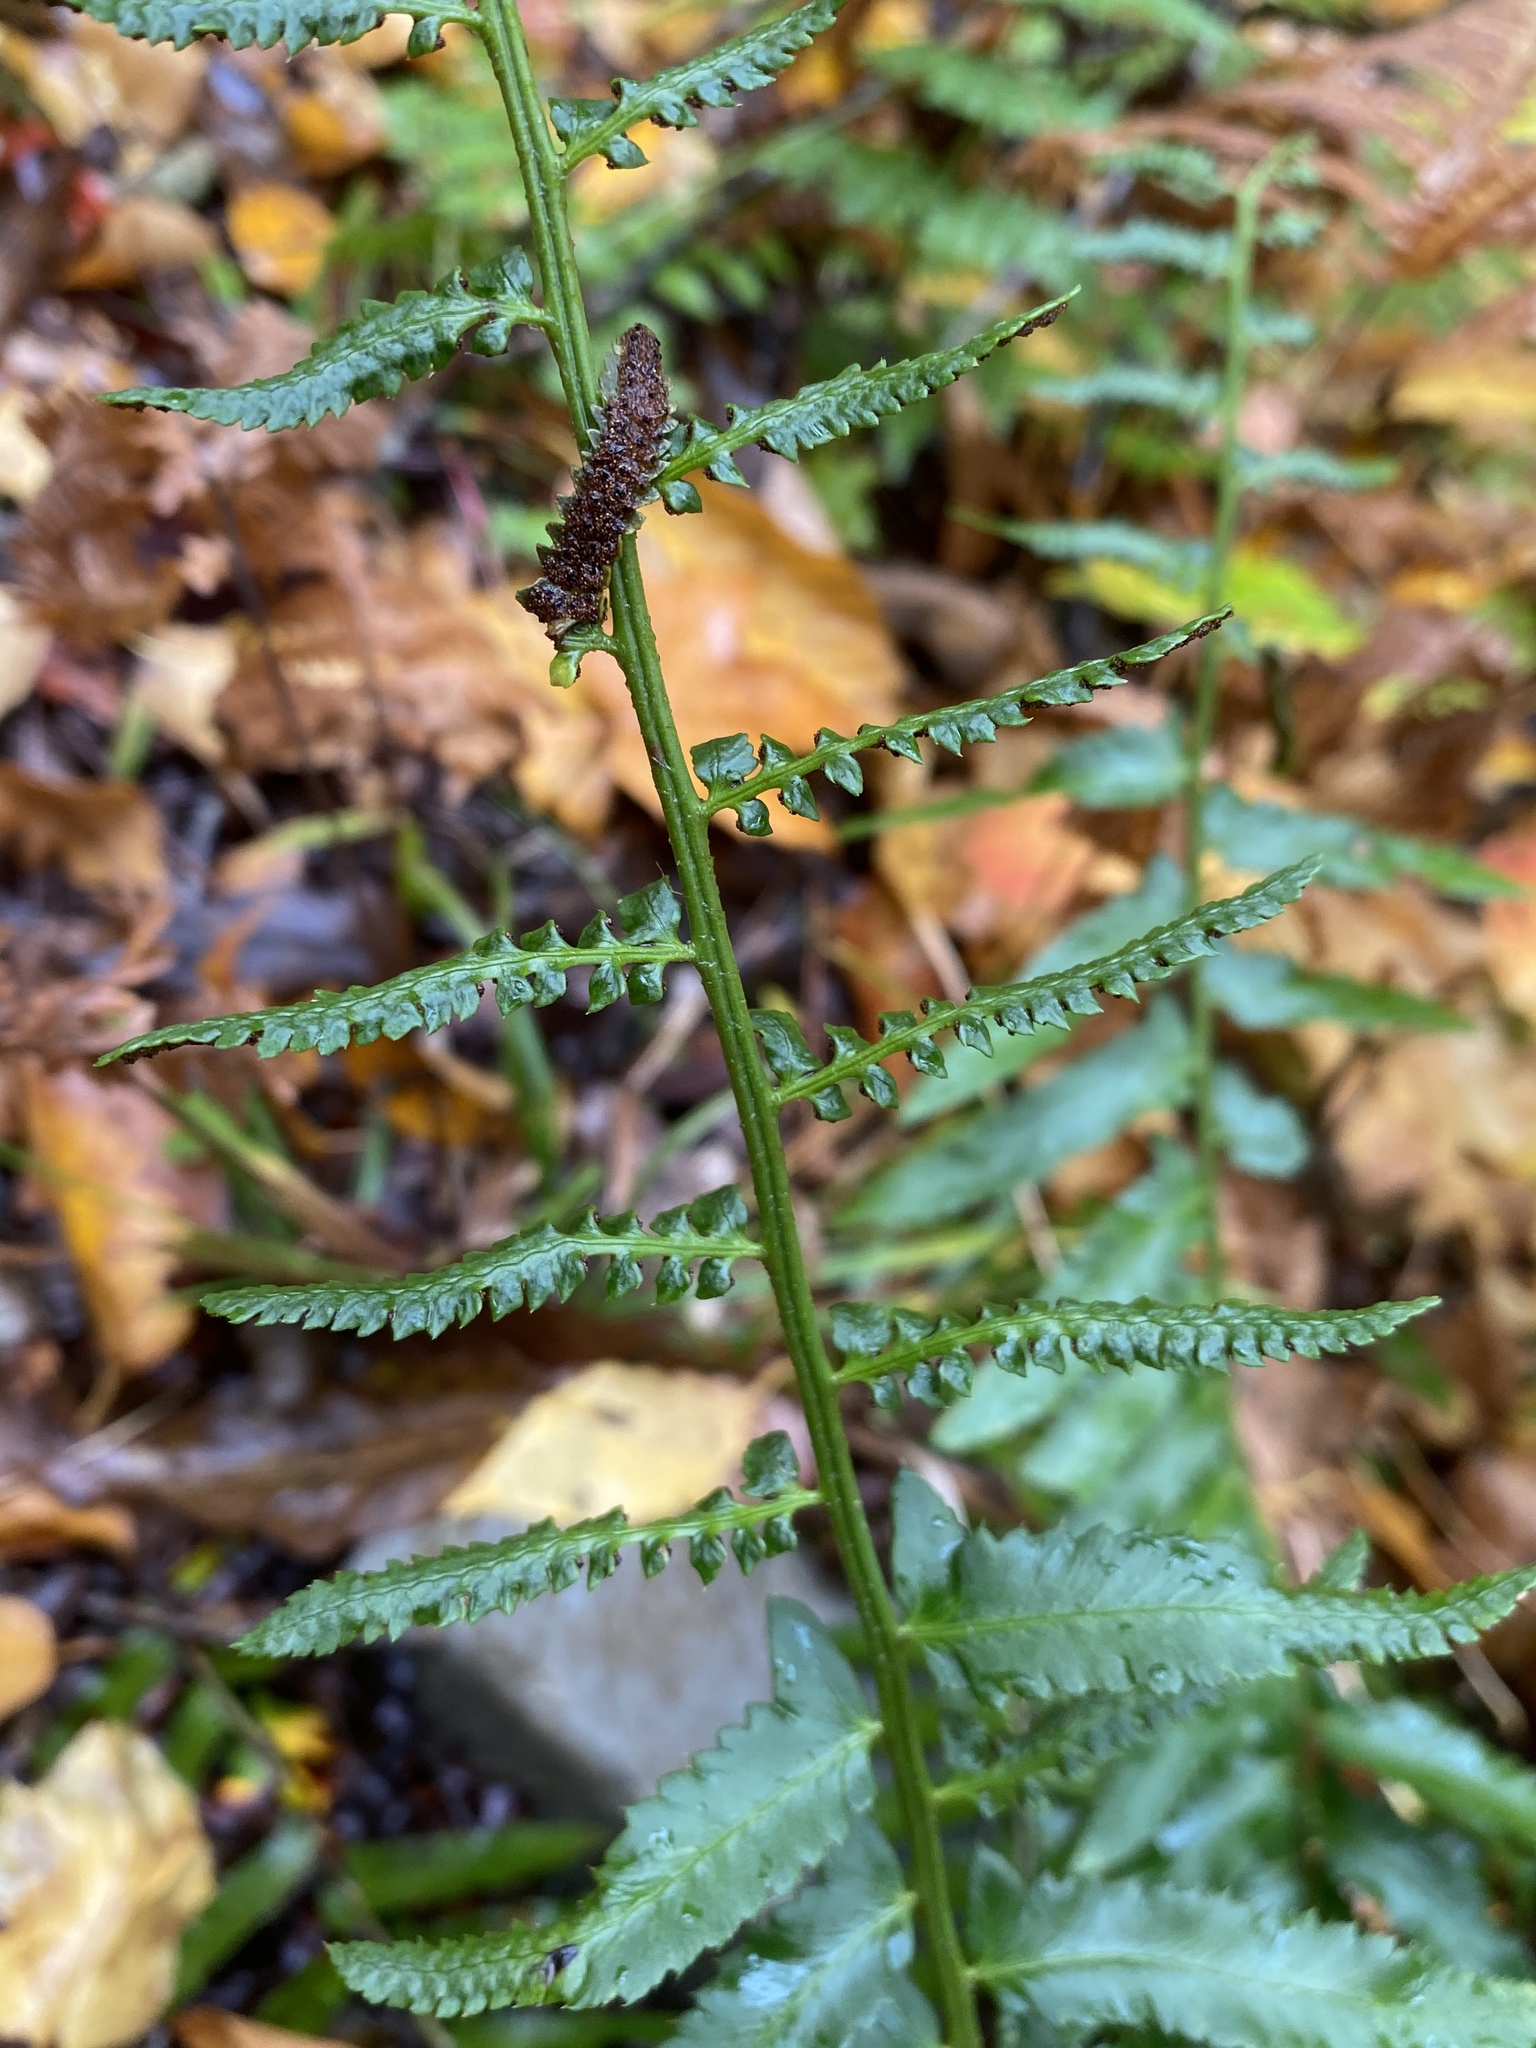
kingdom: Plantae
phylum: Tracheophyta
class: Polypodiopsida
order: Polypodiales
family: Dryopteridaceae
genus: Polystichum
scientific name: Polystichum acrostichoides
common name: Christmas fern
